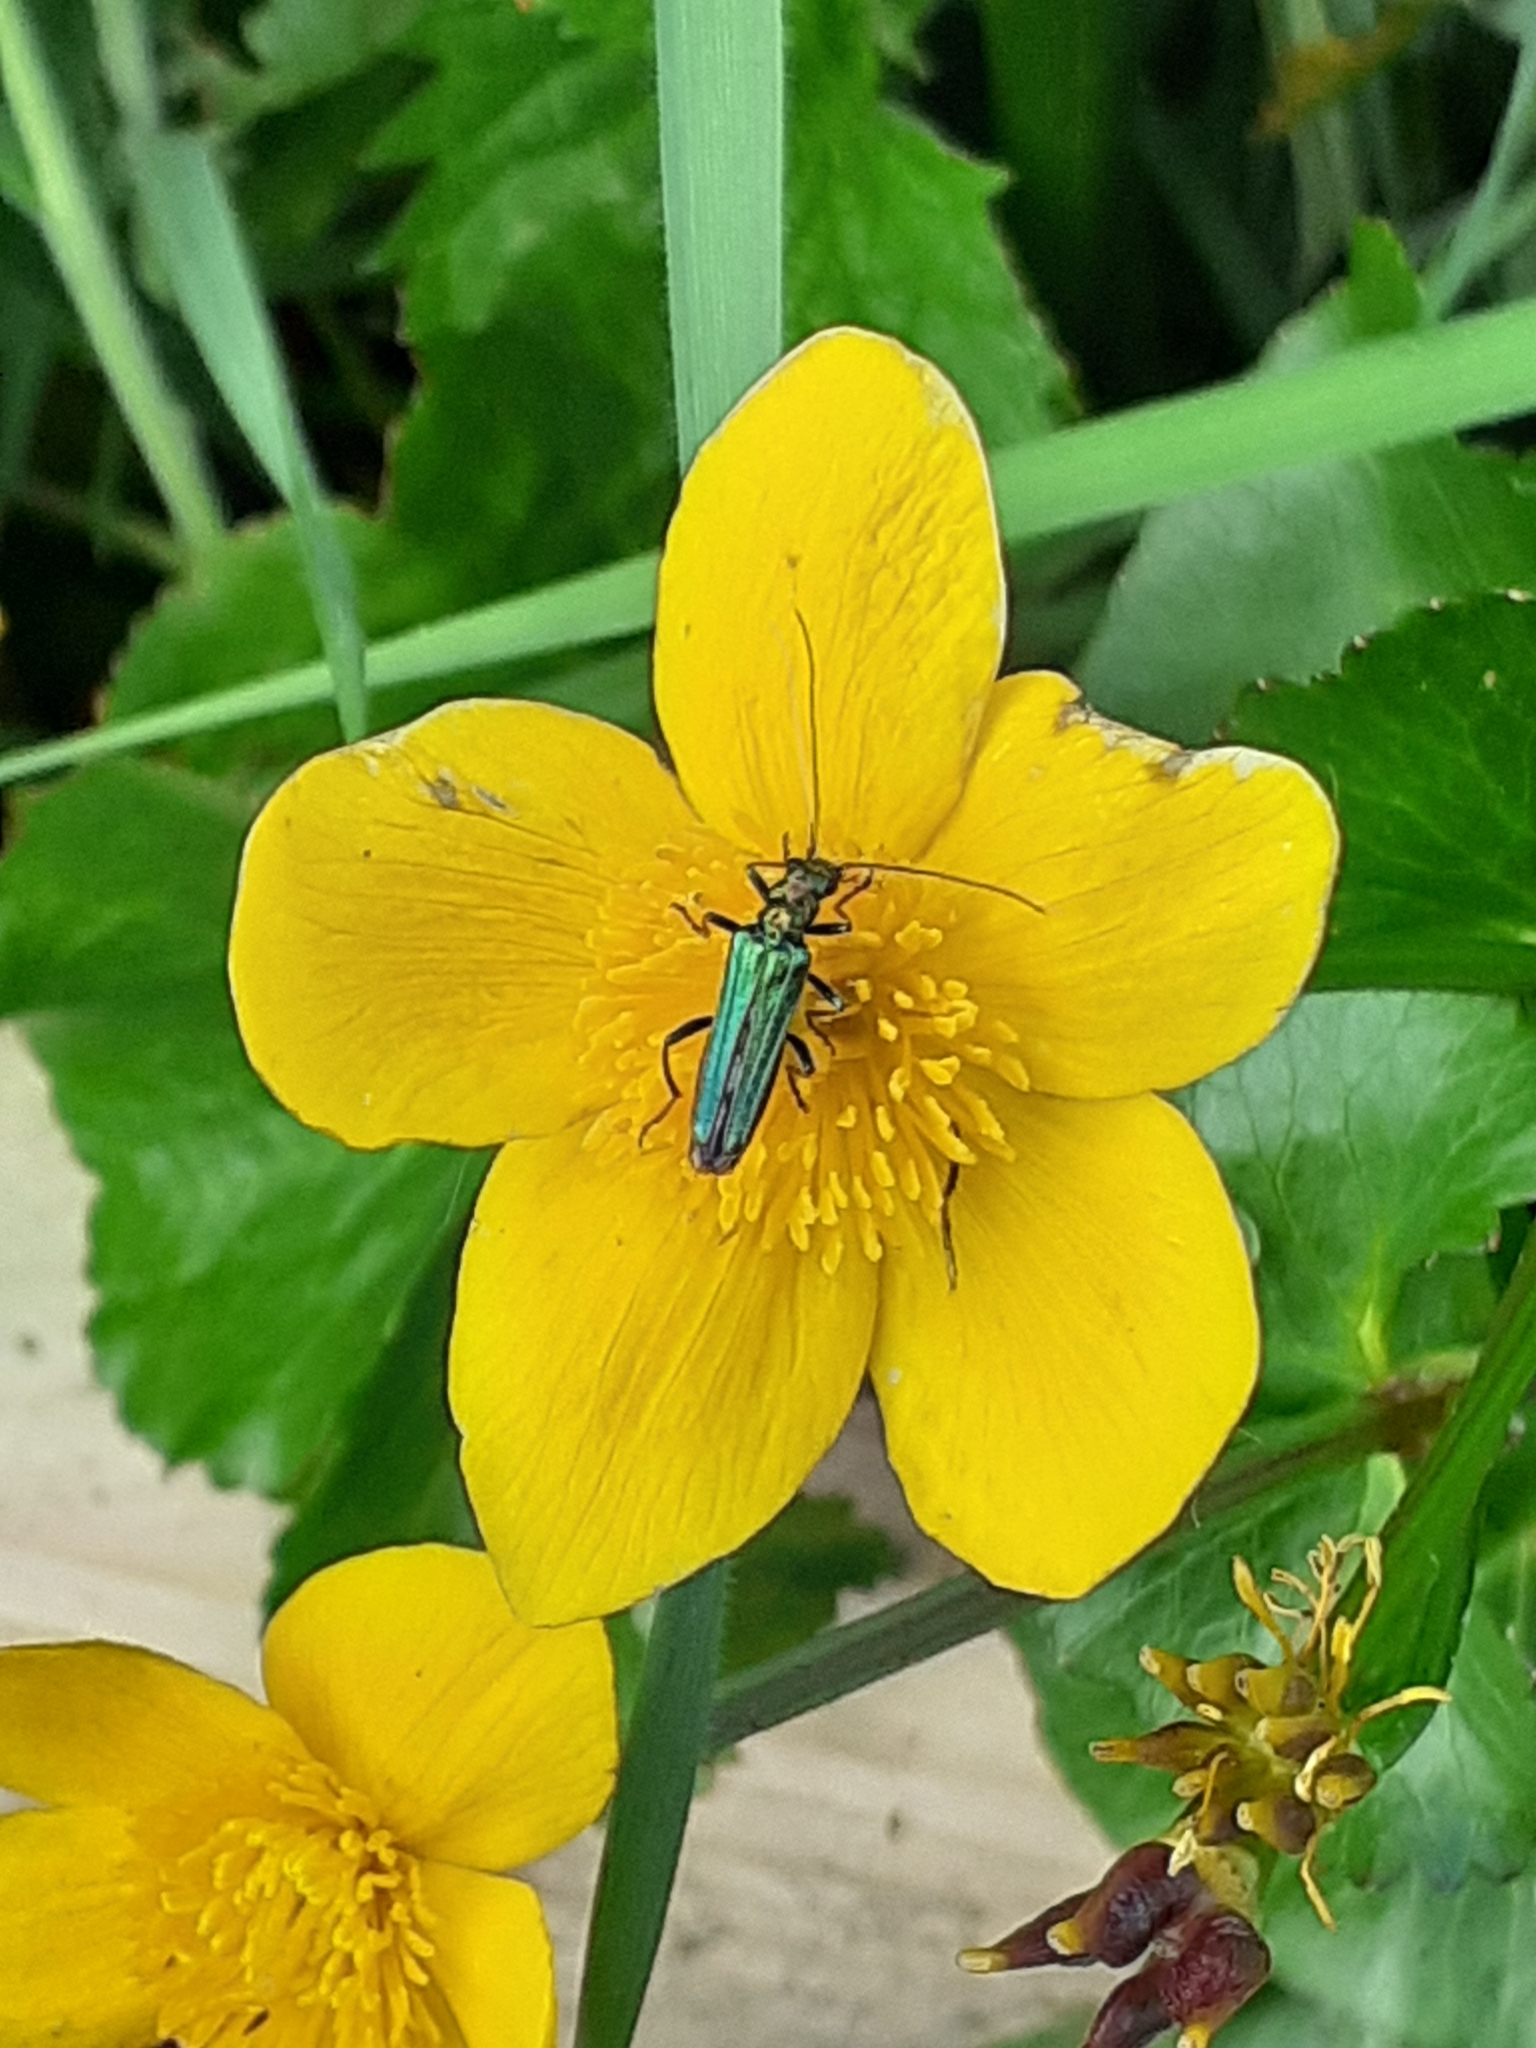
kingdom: Animalia
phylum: Arthropoda
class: Insecta
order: Coleoptera
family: Oedemeridae
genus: Oedemera
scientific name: Oedemera nobilis
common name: Swollen-thighed beetle
